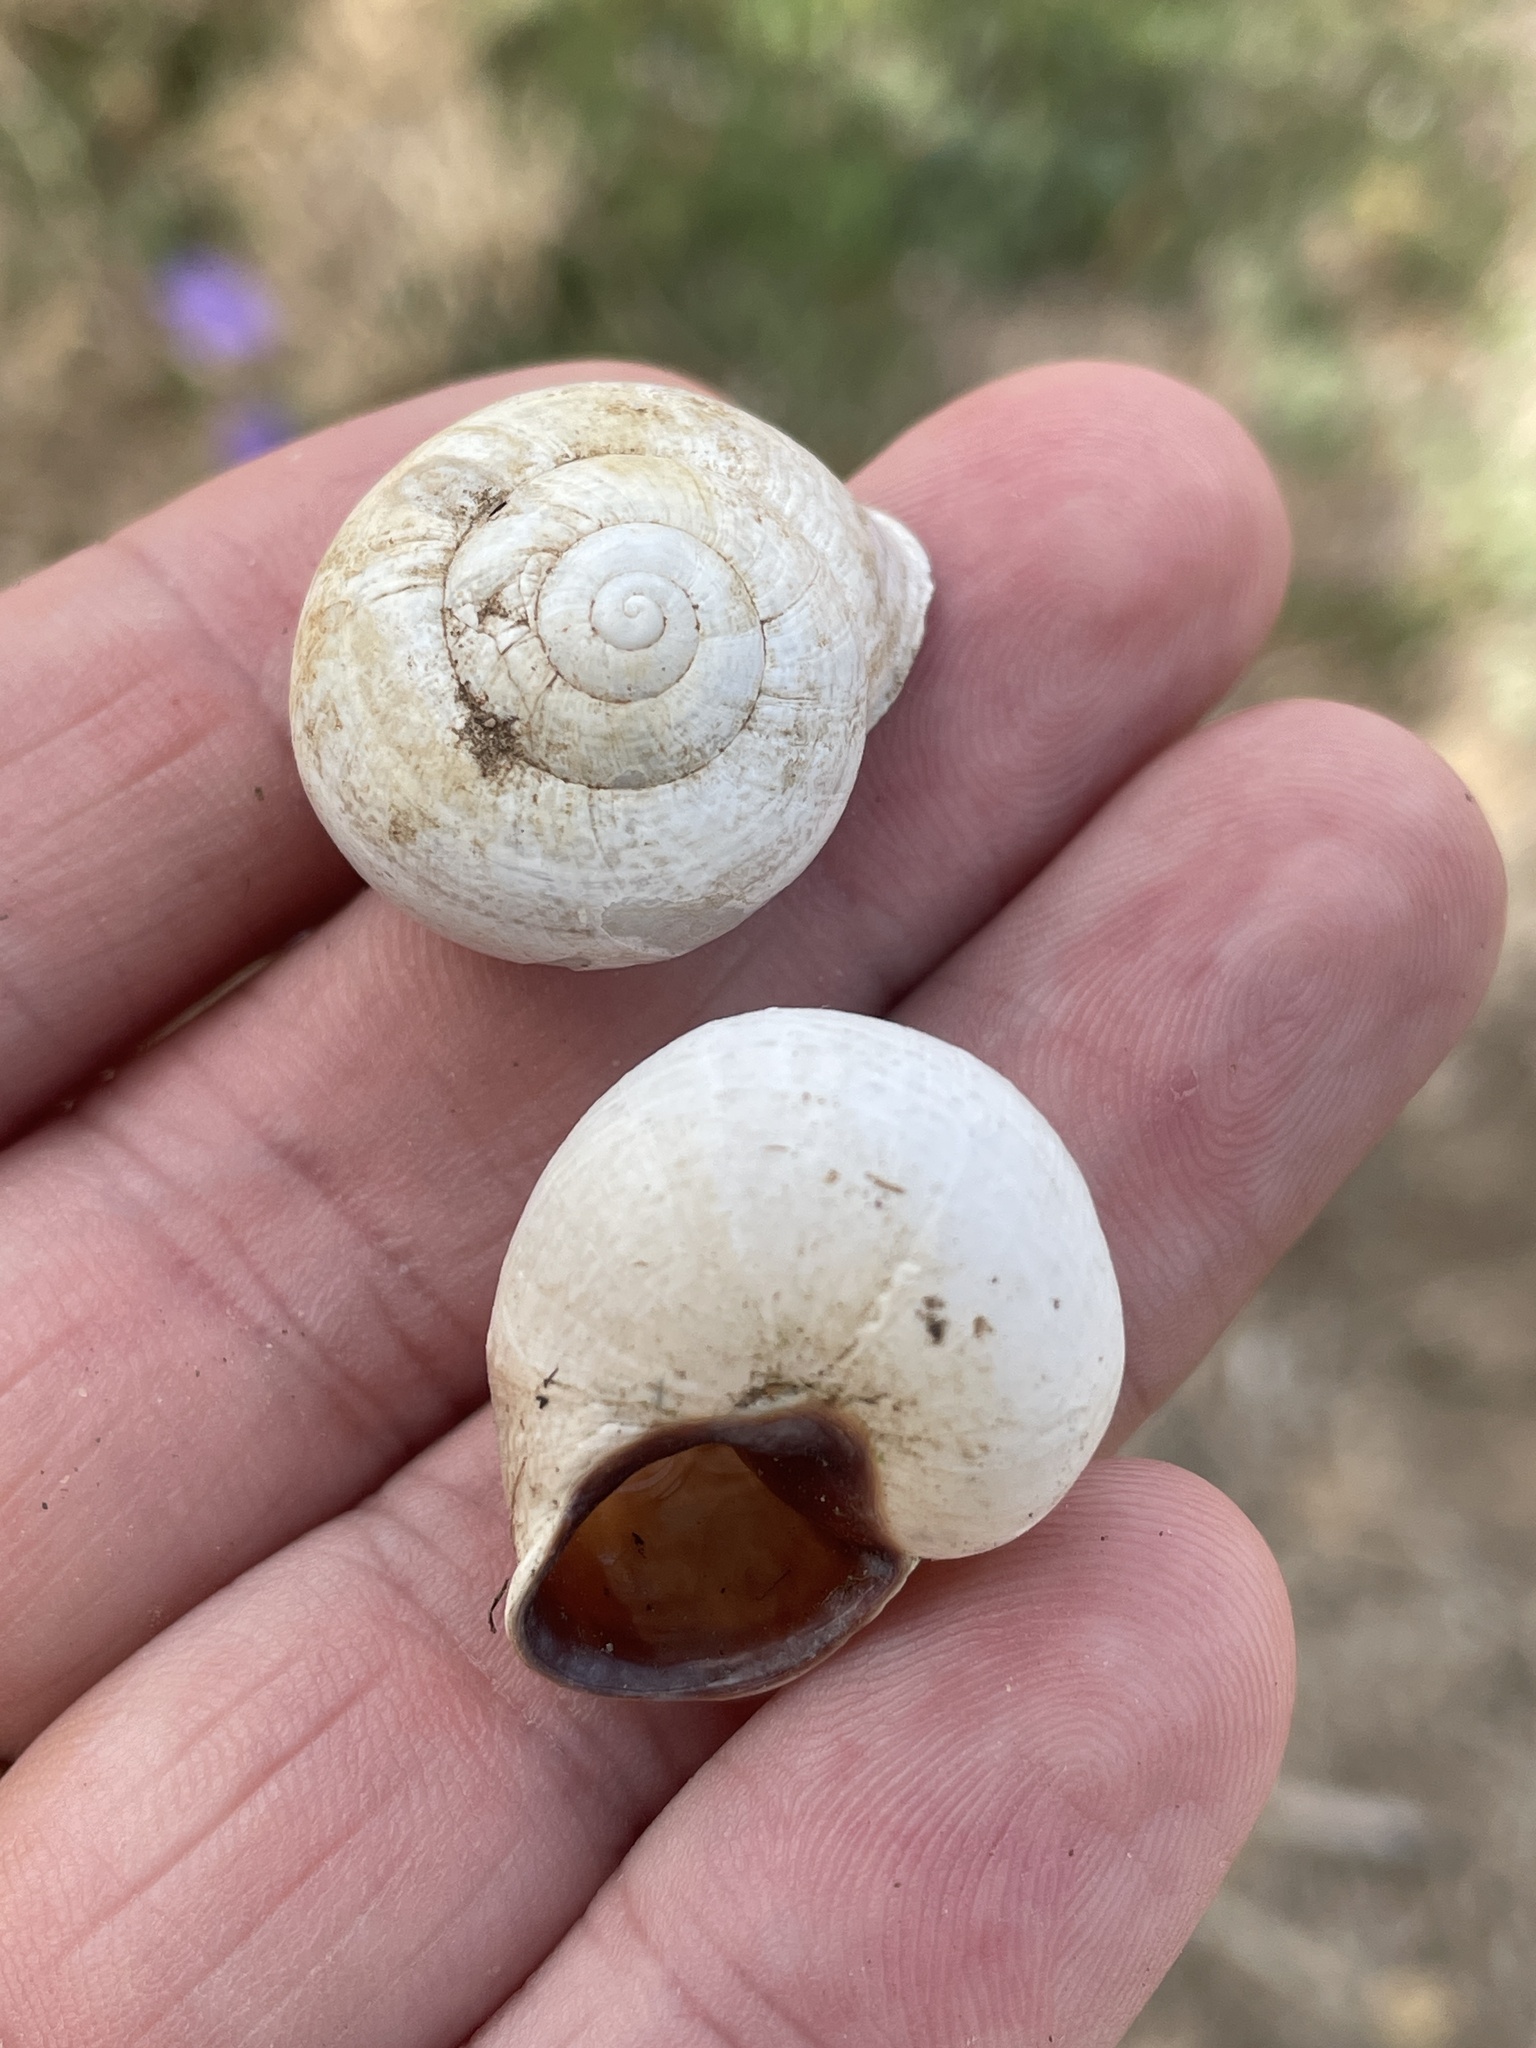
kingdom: Animalia
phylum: Mollusca
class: Gastropoda
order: Stylommatophora
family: Helicidae
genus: Otala
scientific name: Otala lactea
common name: Milk snail
